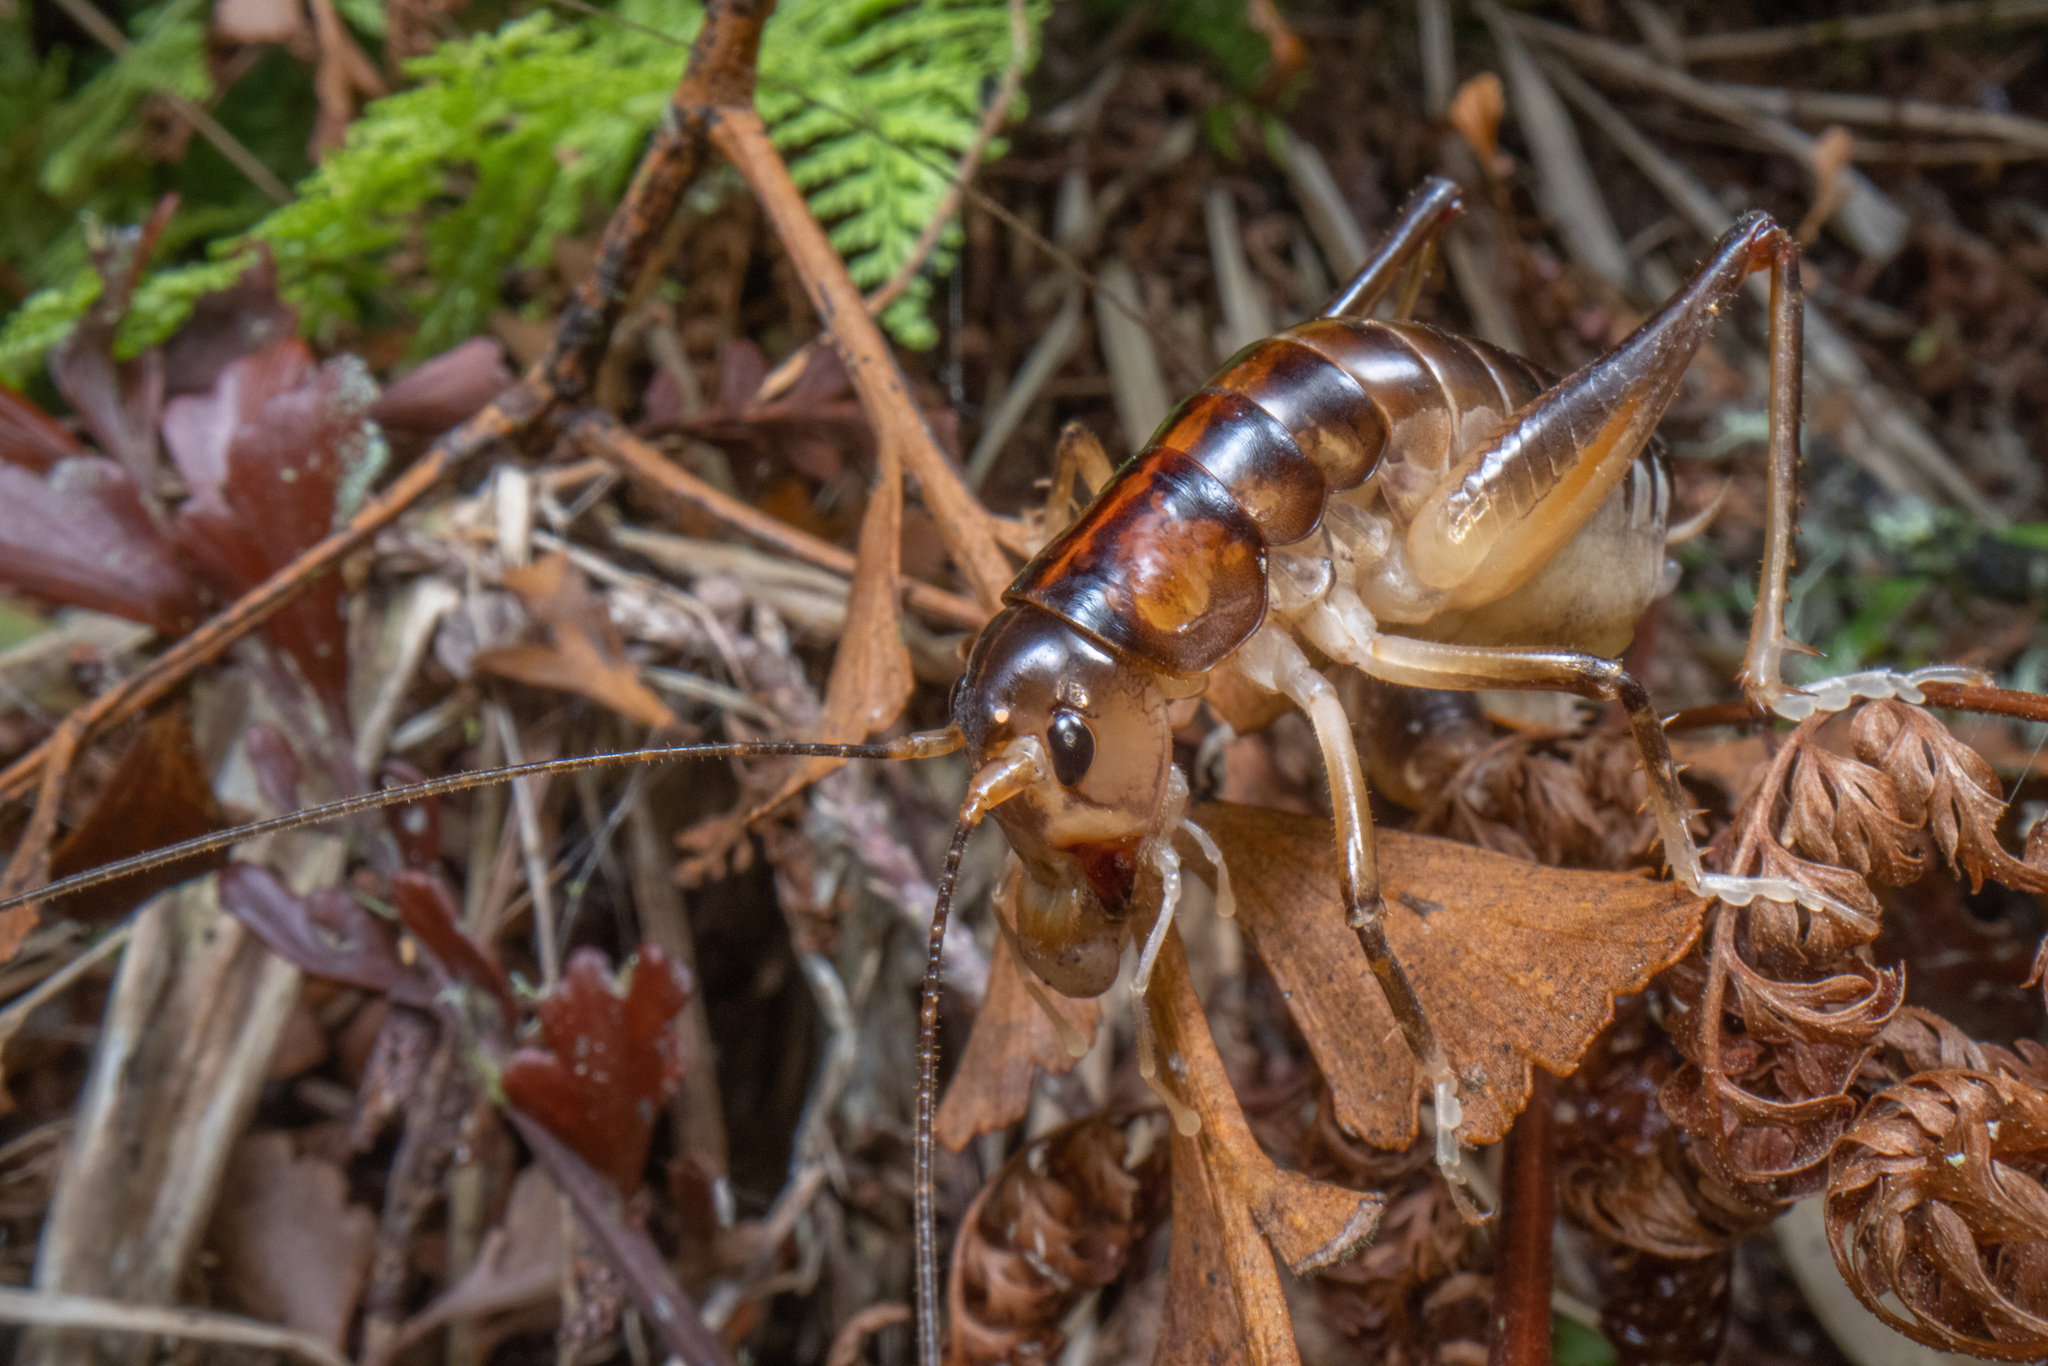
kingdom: Animalia
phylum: Arthropoda
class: Insecta
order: Orthoptera
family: Anostostomatidae
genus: Hemiandrus
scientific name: Hemiandrus pallitarsis
